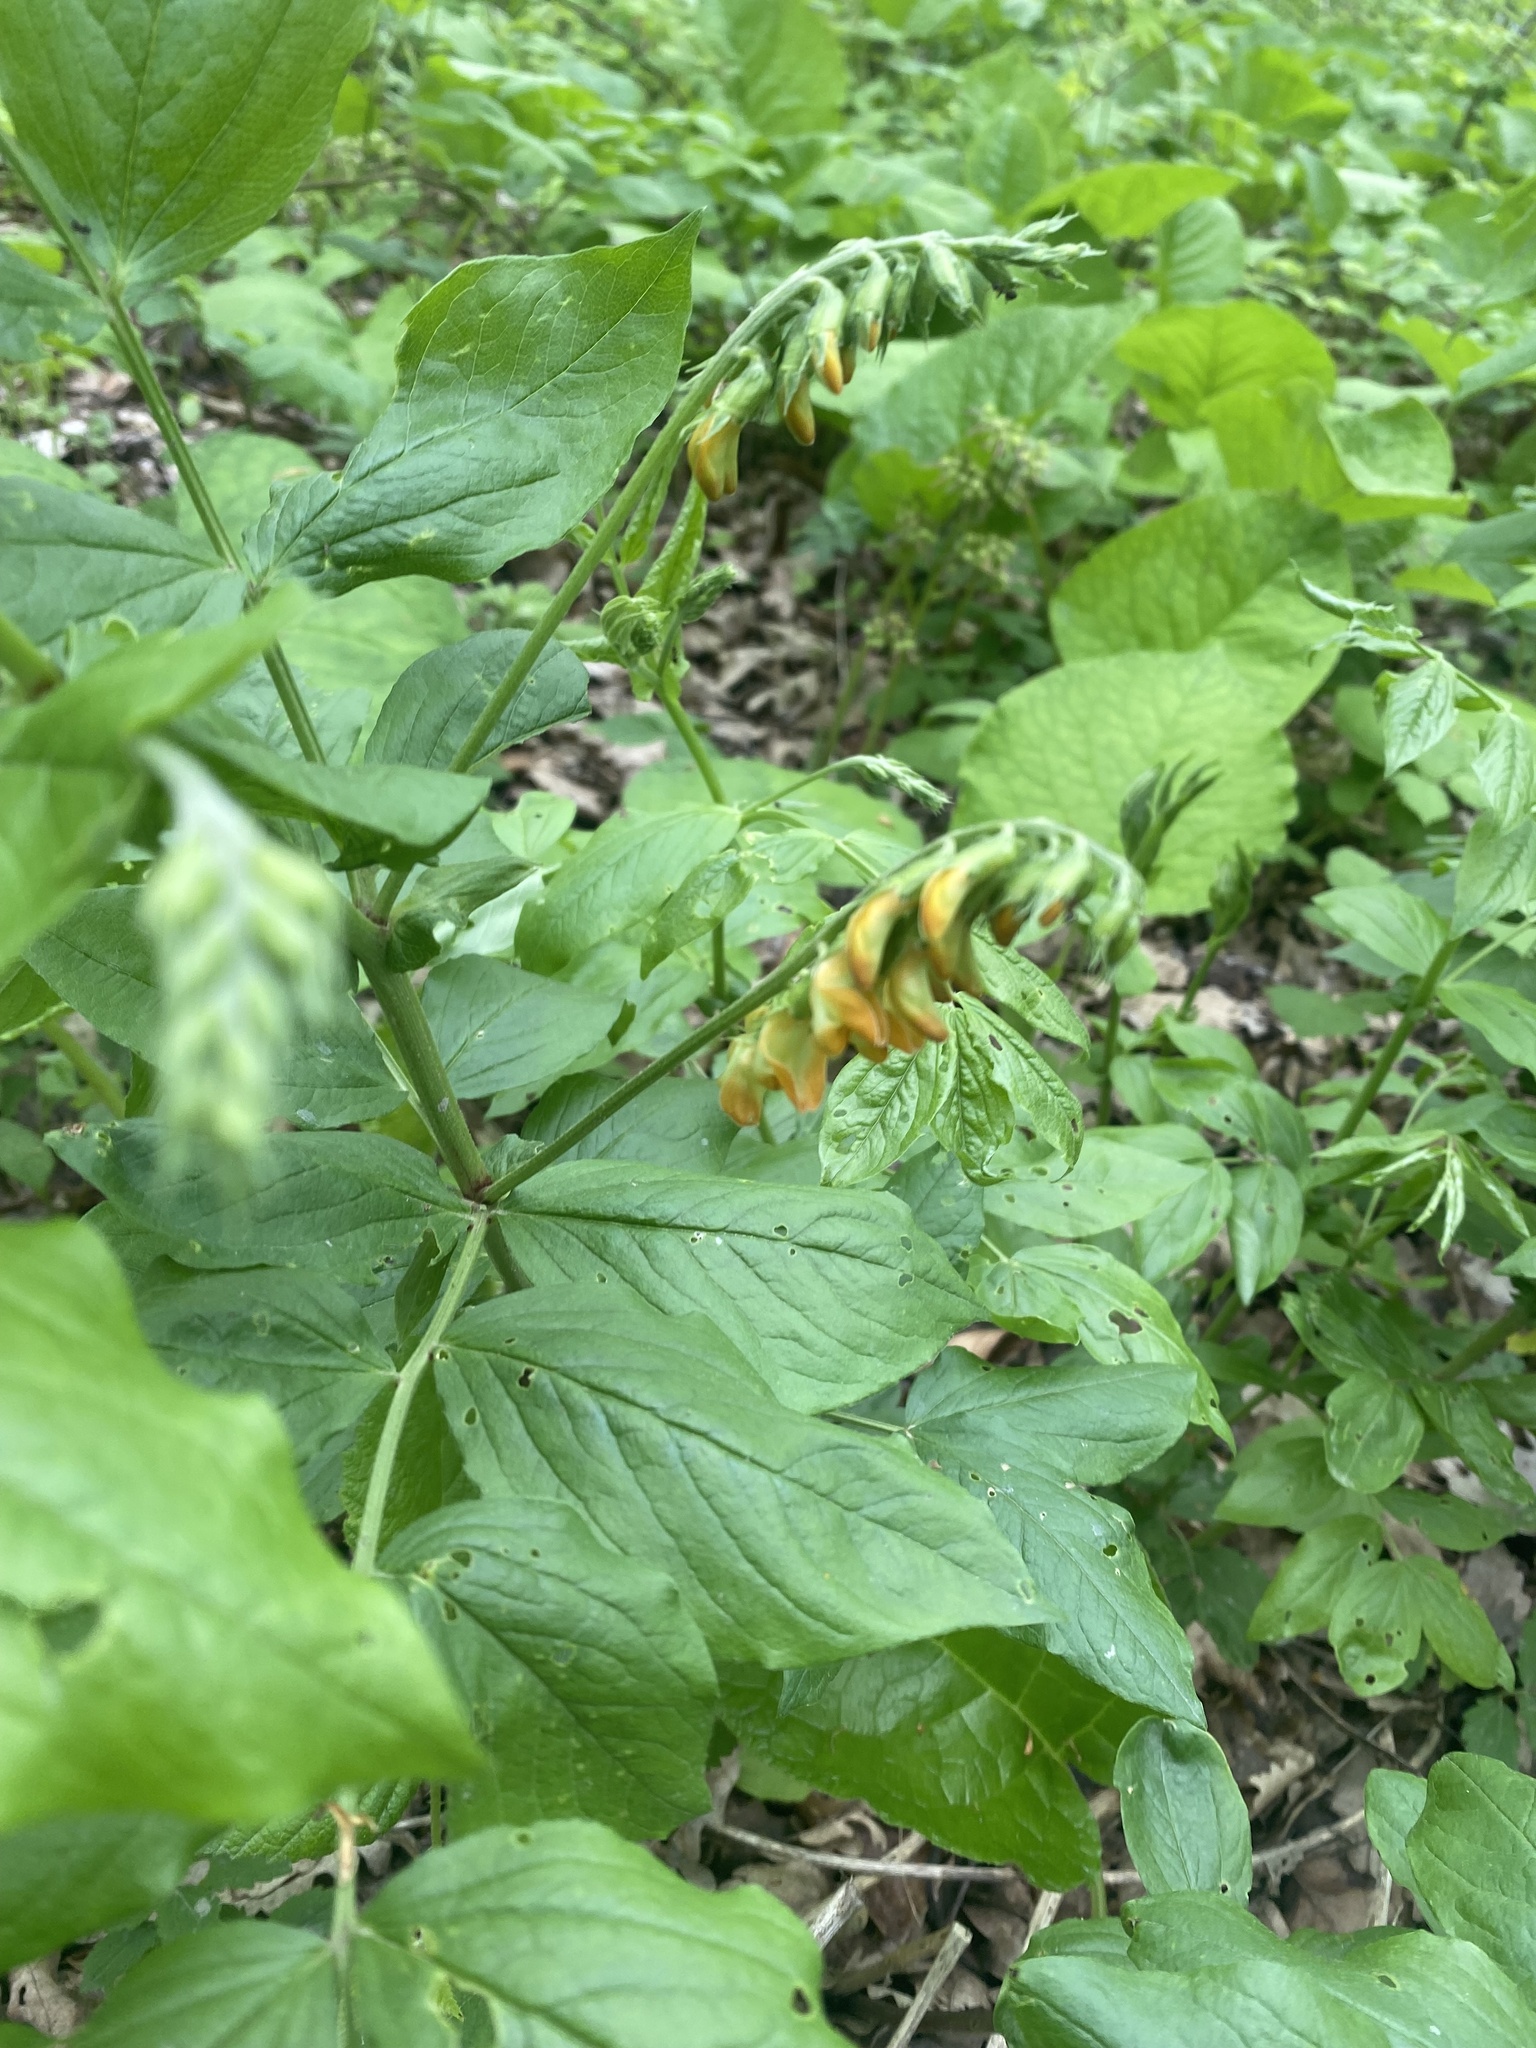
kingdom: Plantae
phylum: Tracheophyta
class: Magnoliopsida
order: Fabales
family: Fabaceae
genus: Lathyrus
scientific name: Lathyrus aureus
